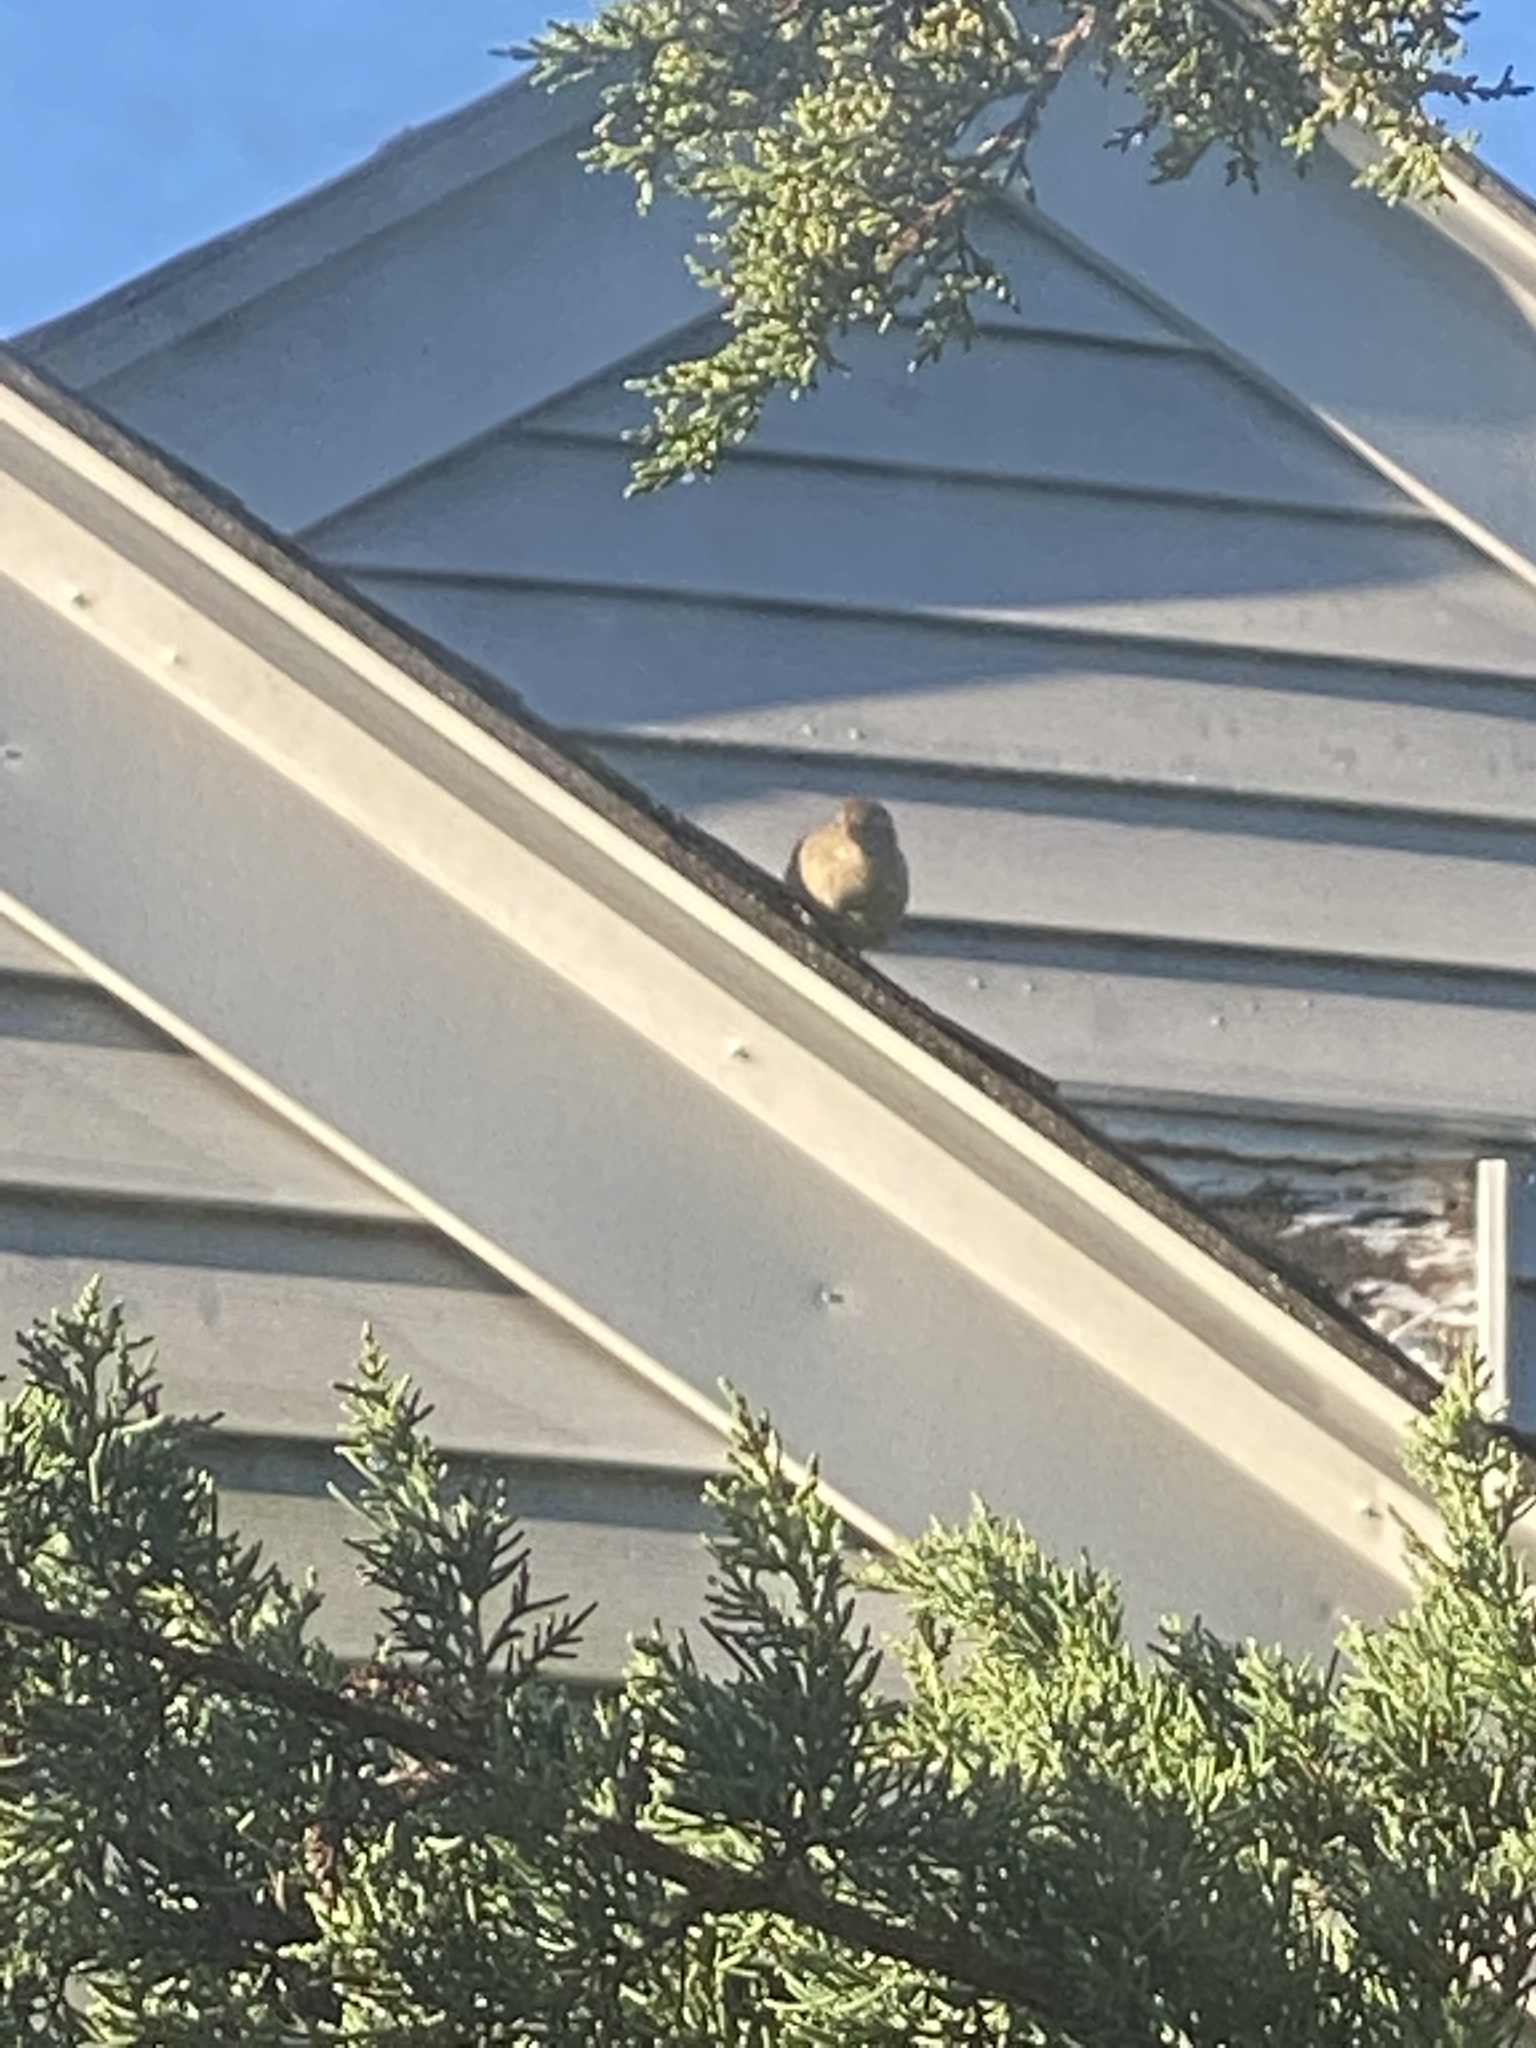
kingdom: Animalia
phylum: Chordata
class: Aves
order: Passeriformes
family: Passeridae
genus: Passer
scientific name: Passer domesticus
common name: House sparrow
